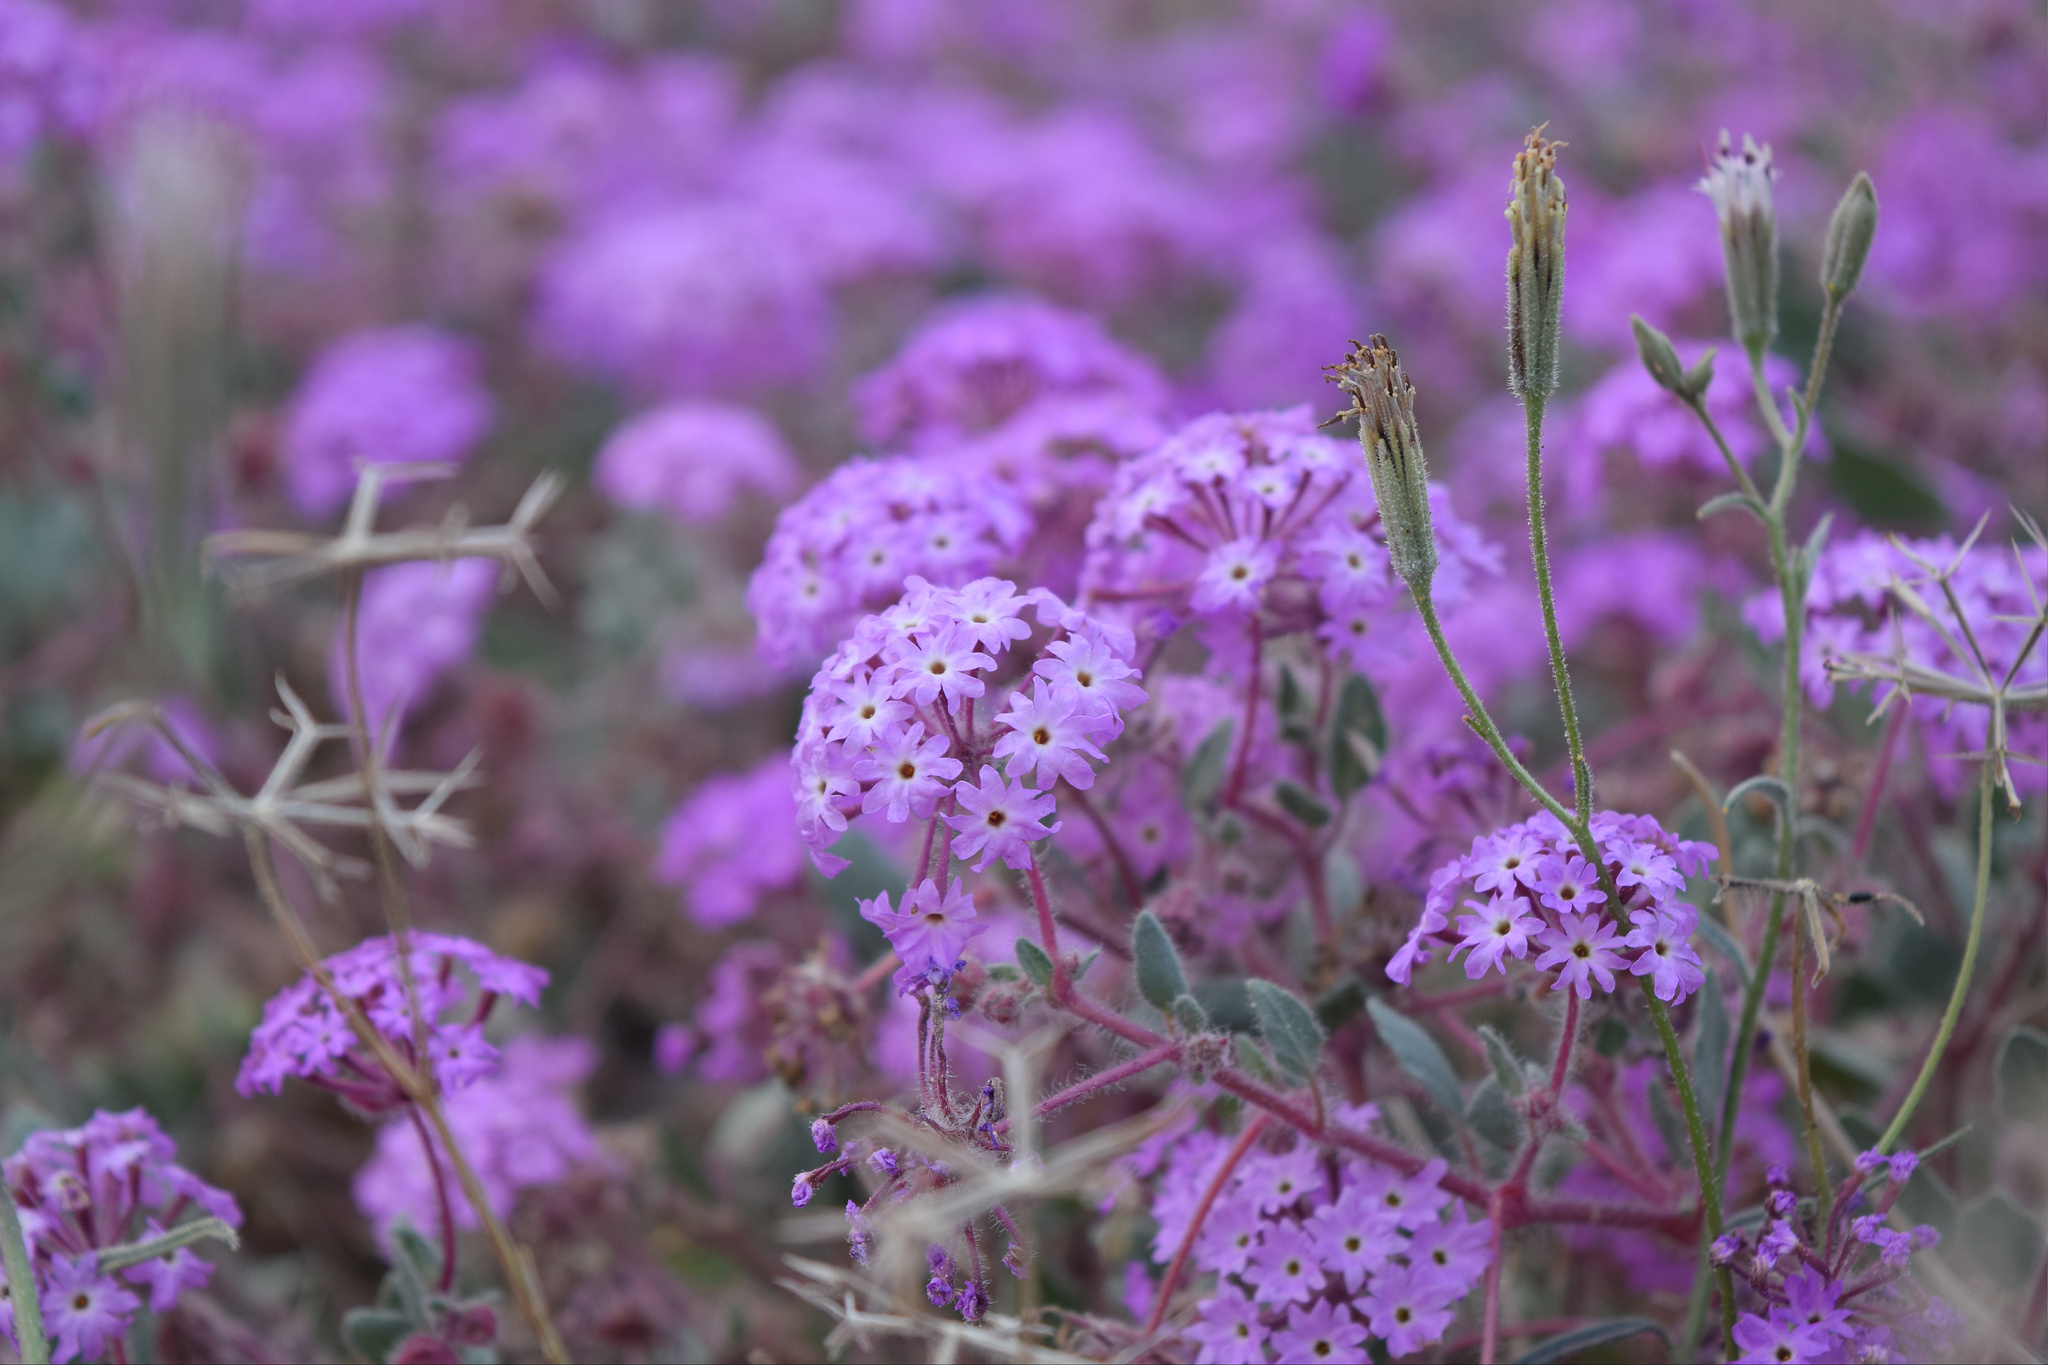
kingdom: Plantae
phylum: Tracheophyta
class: Magnoliopsida
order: Caryophyllales
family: Nyctaginaceae
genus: Abronia
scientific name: Abronia villosa
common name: Desert sand-verbena
